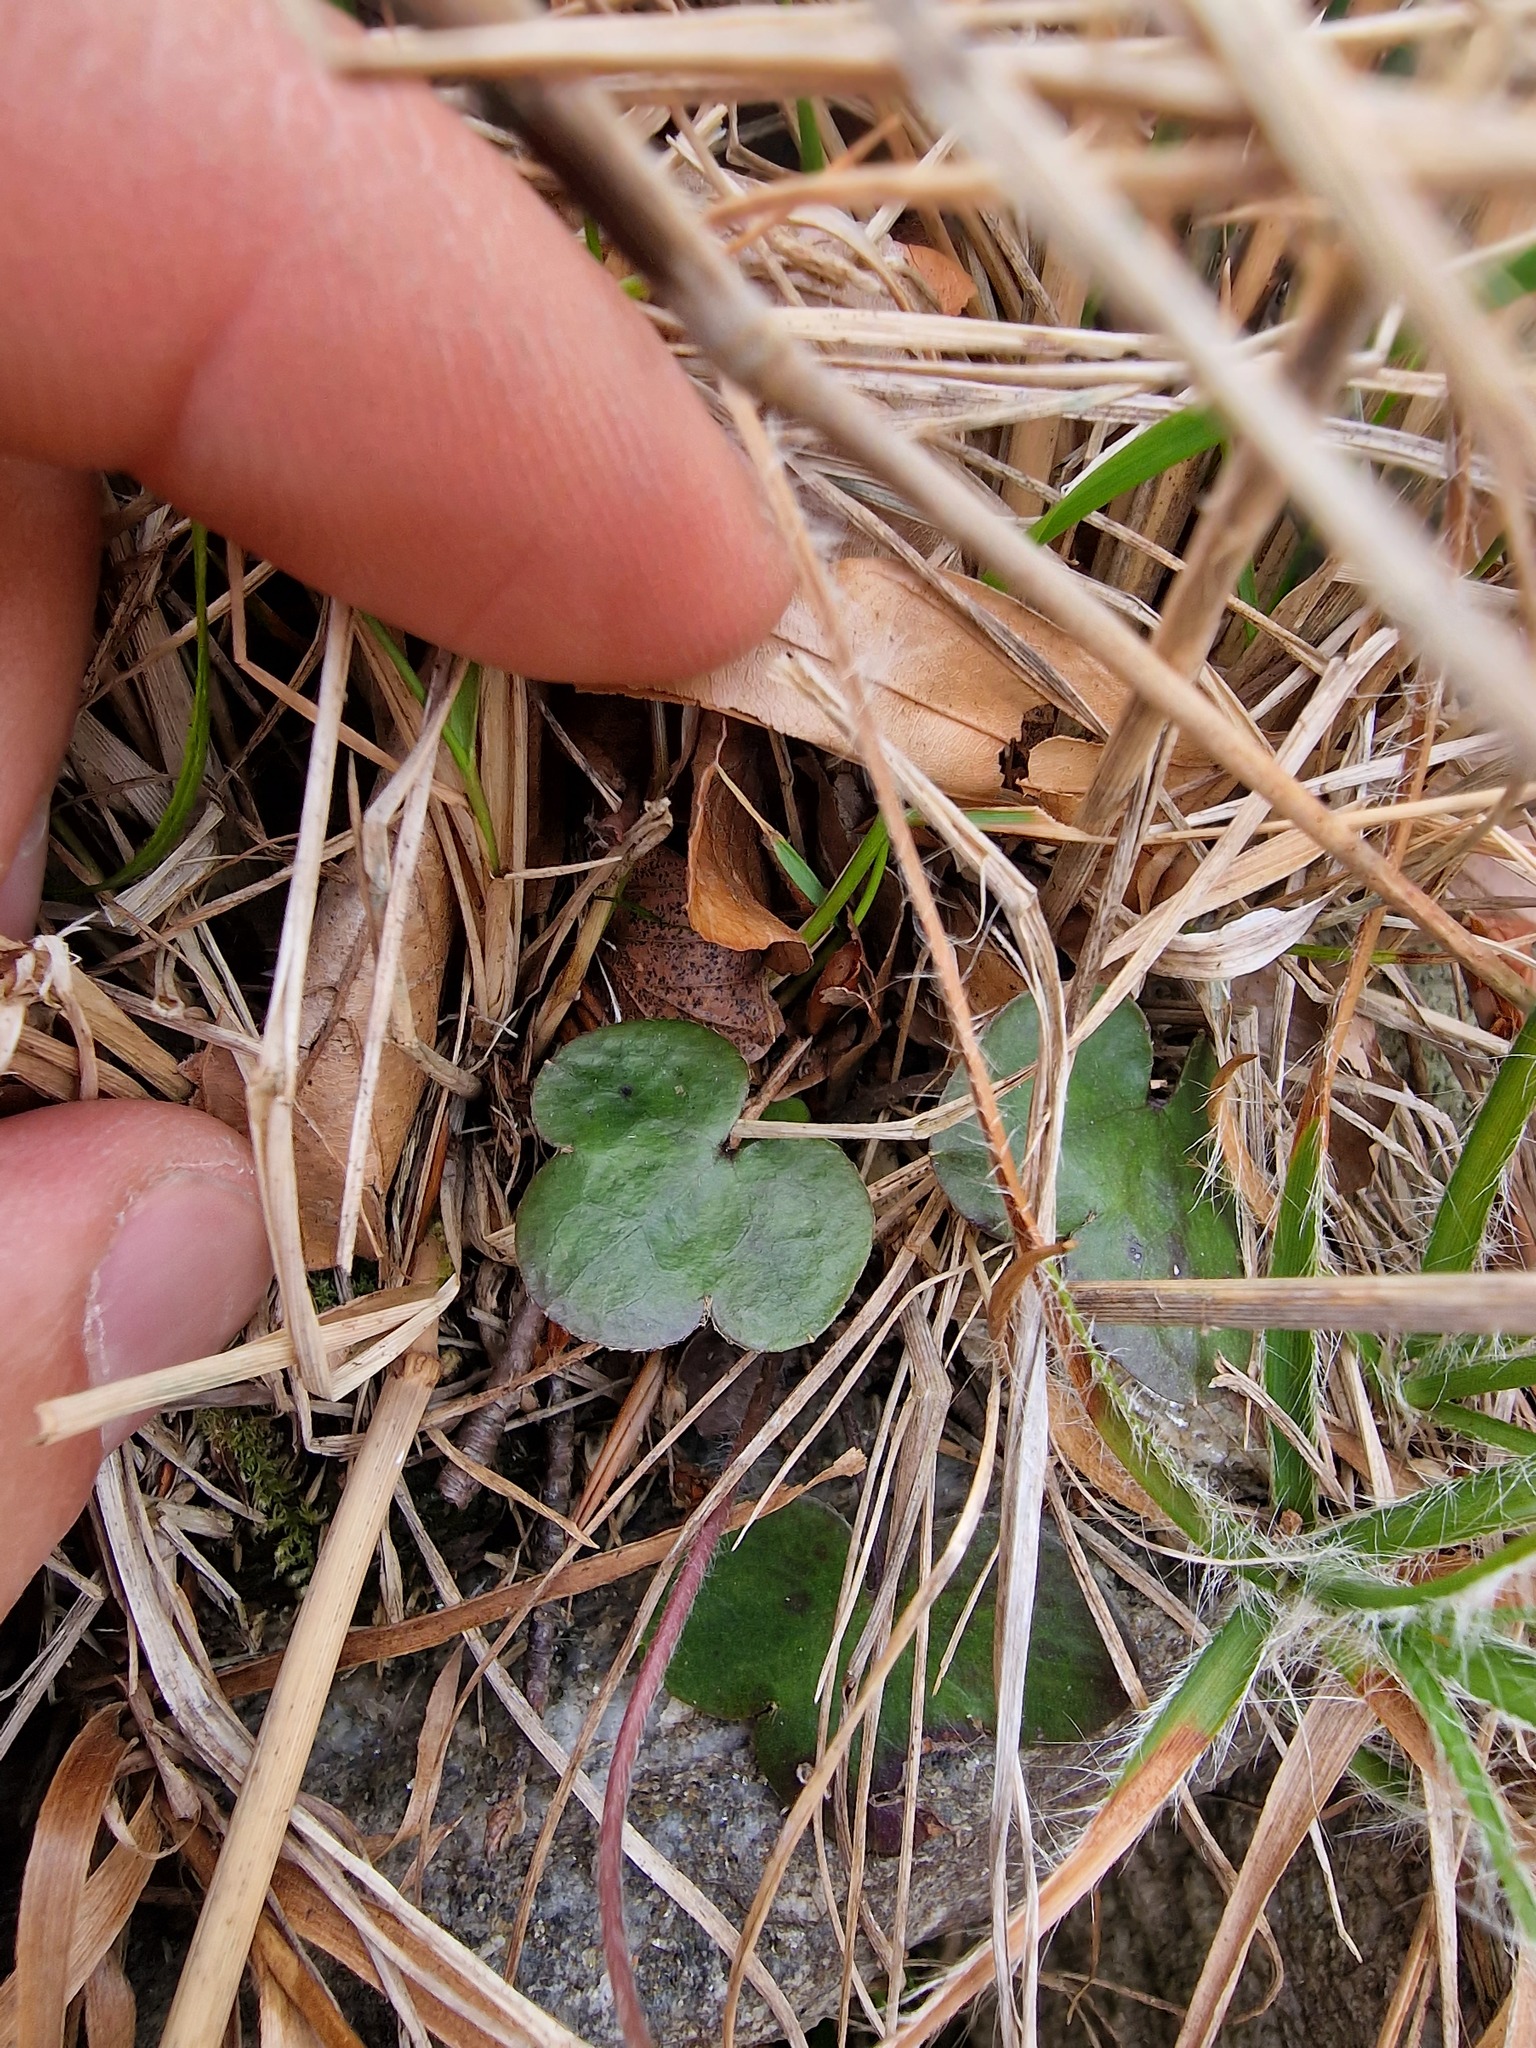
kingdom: Plantae
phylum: Tracheophyta
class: Magnoliopsida
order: Ranunculales
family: Ranunculaceae
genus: Hepatica
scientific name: Hepatica nobilis
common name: Liverleaf
